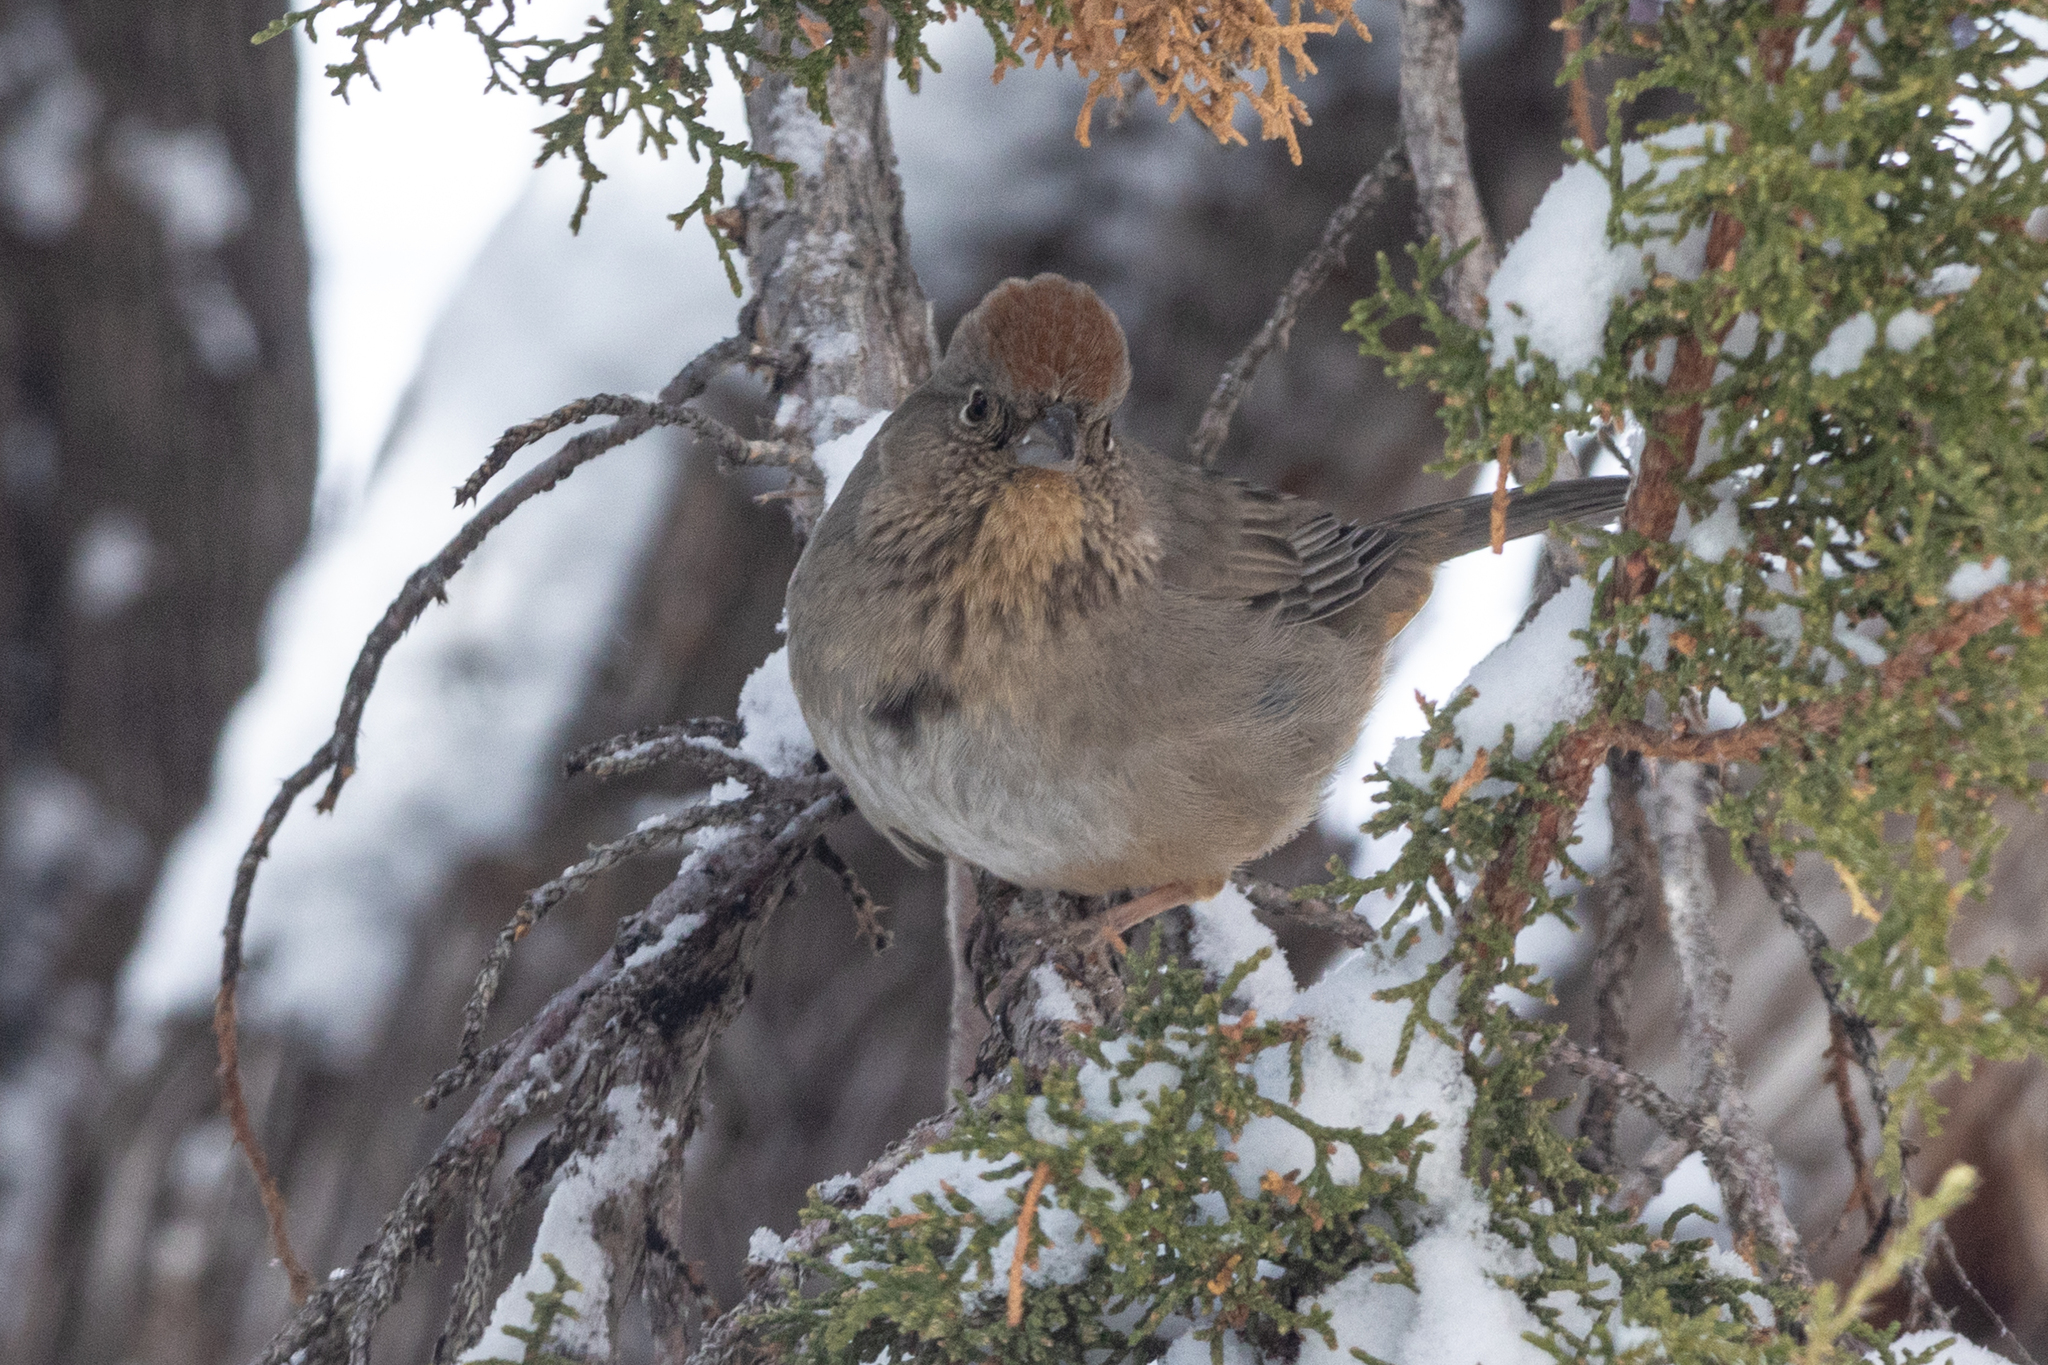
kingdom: Animalia
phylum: Chordata
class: Aves
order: Passeriformes
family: Passerellidae
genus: Melozone
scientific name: Melozone fusca
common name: Canyon towhee
